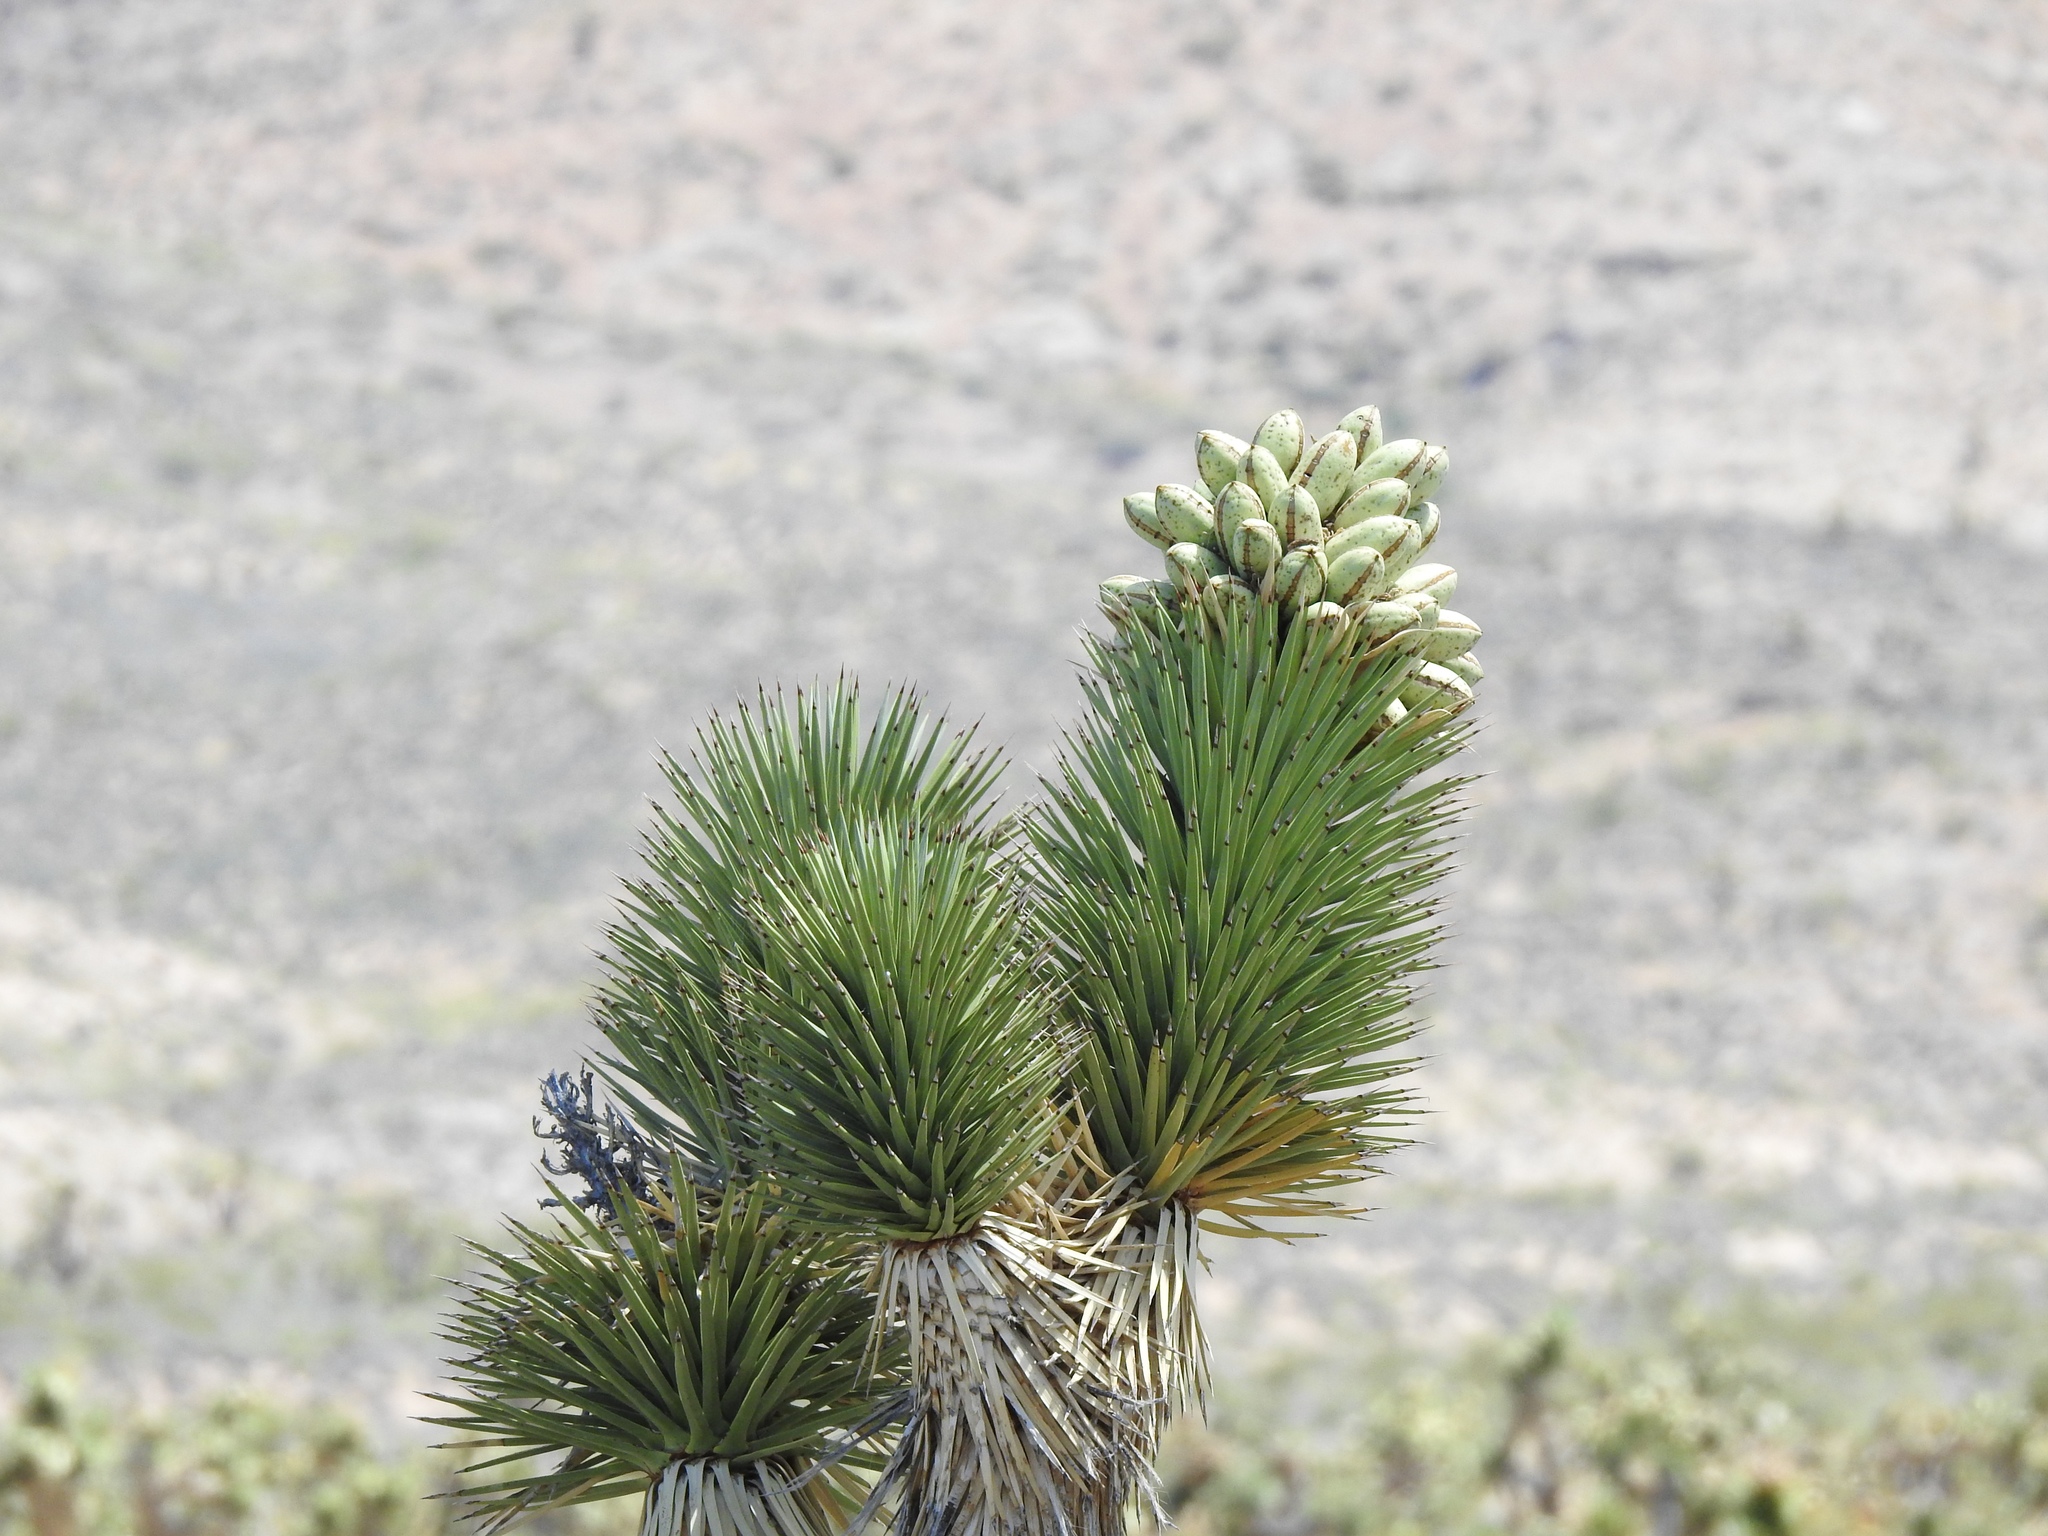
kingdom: Plantae
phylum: Tracheophyta
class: Liliopsida
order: Asparagales
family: Asparagaceae
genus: Yucca
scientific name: Yucca brevifolia
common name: Joshua tree
